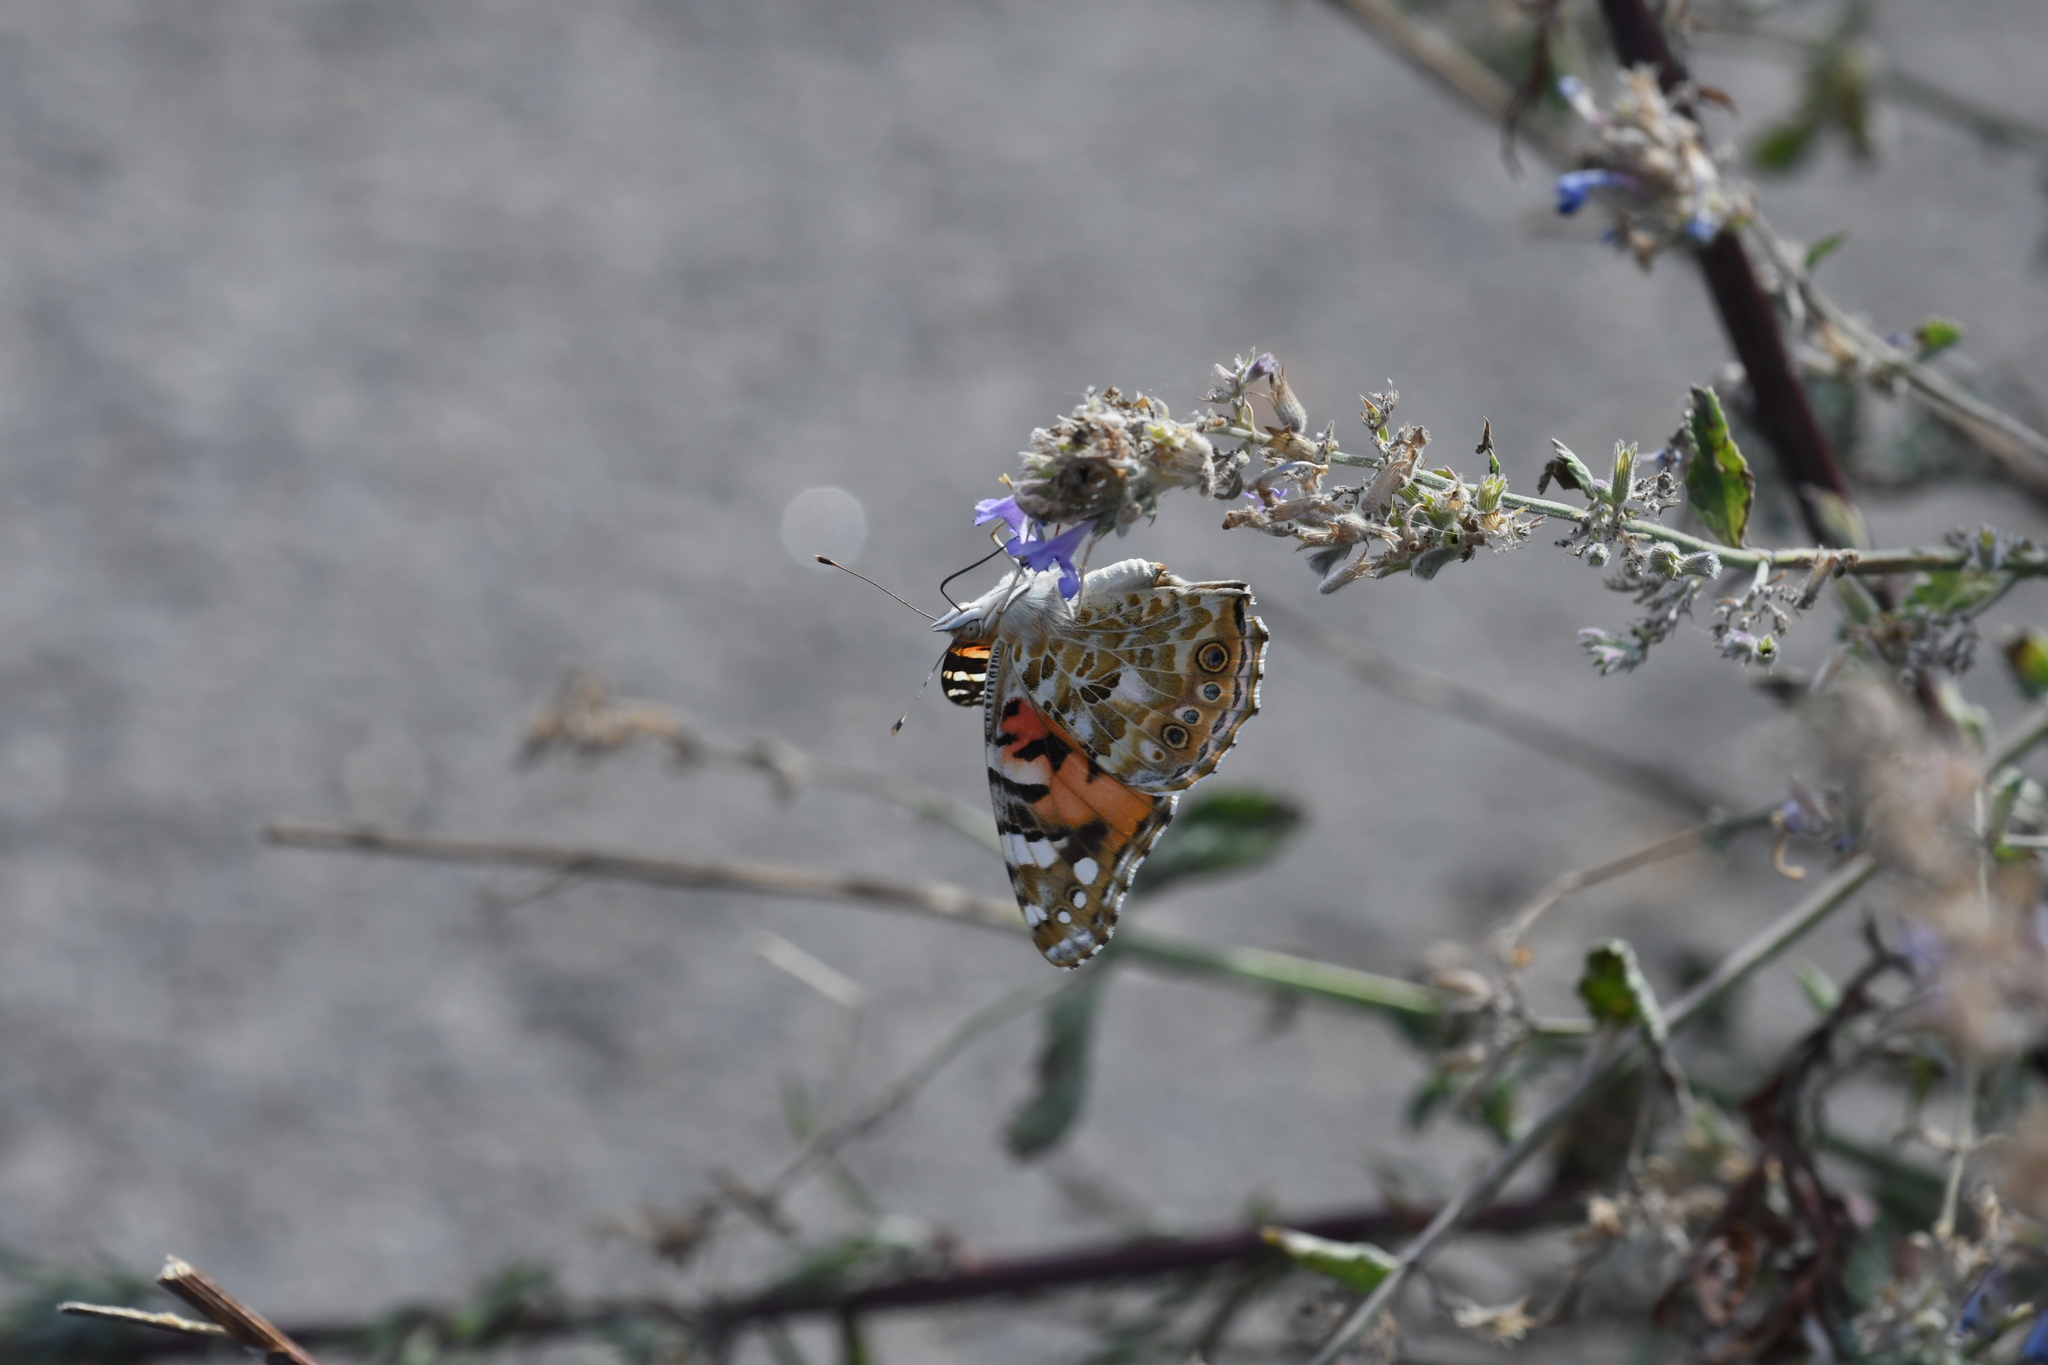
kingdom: Animalia
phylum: Arthropoda
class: Insecta
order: Lepidoptera
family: Nymphalidae
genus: Vanessa
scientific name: Vanessa cardui
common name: Painted lady
